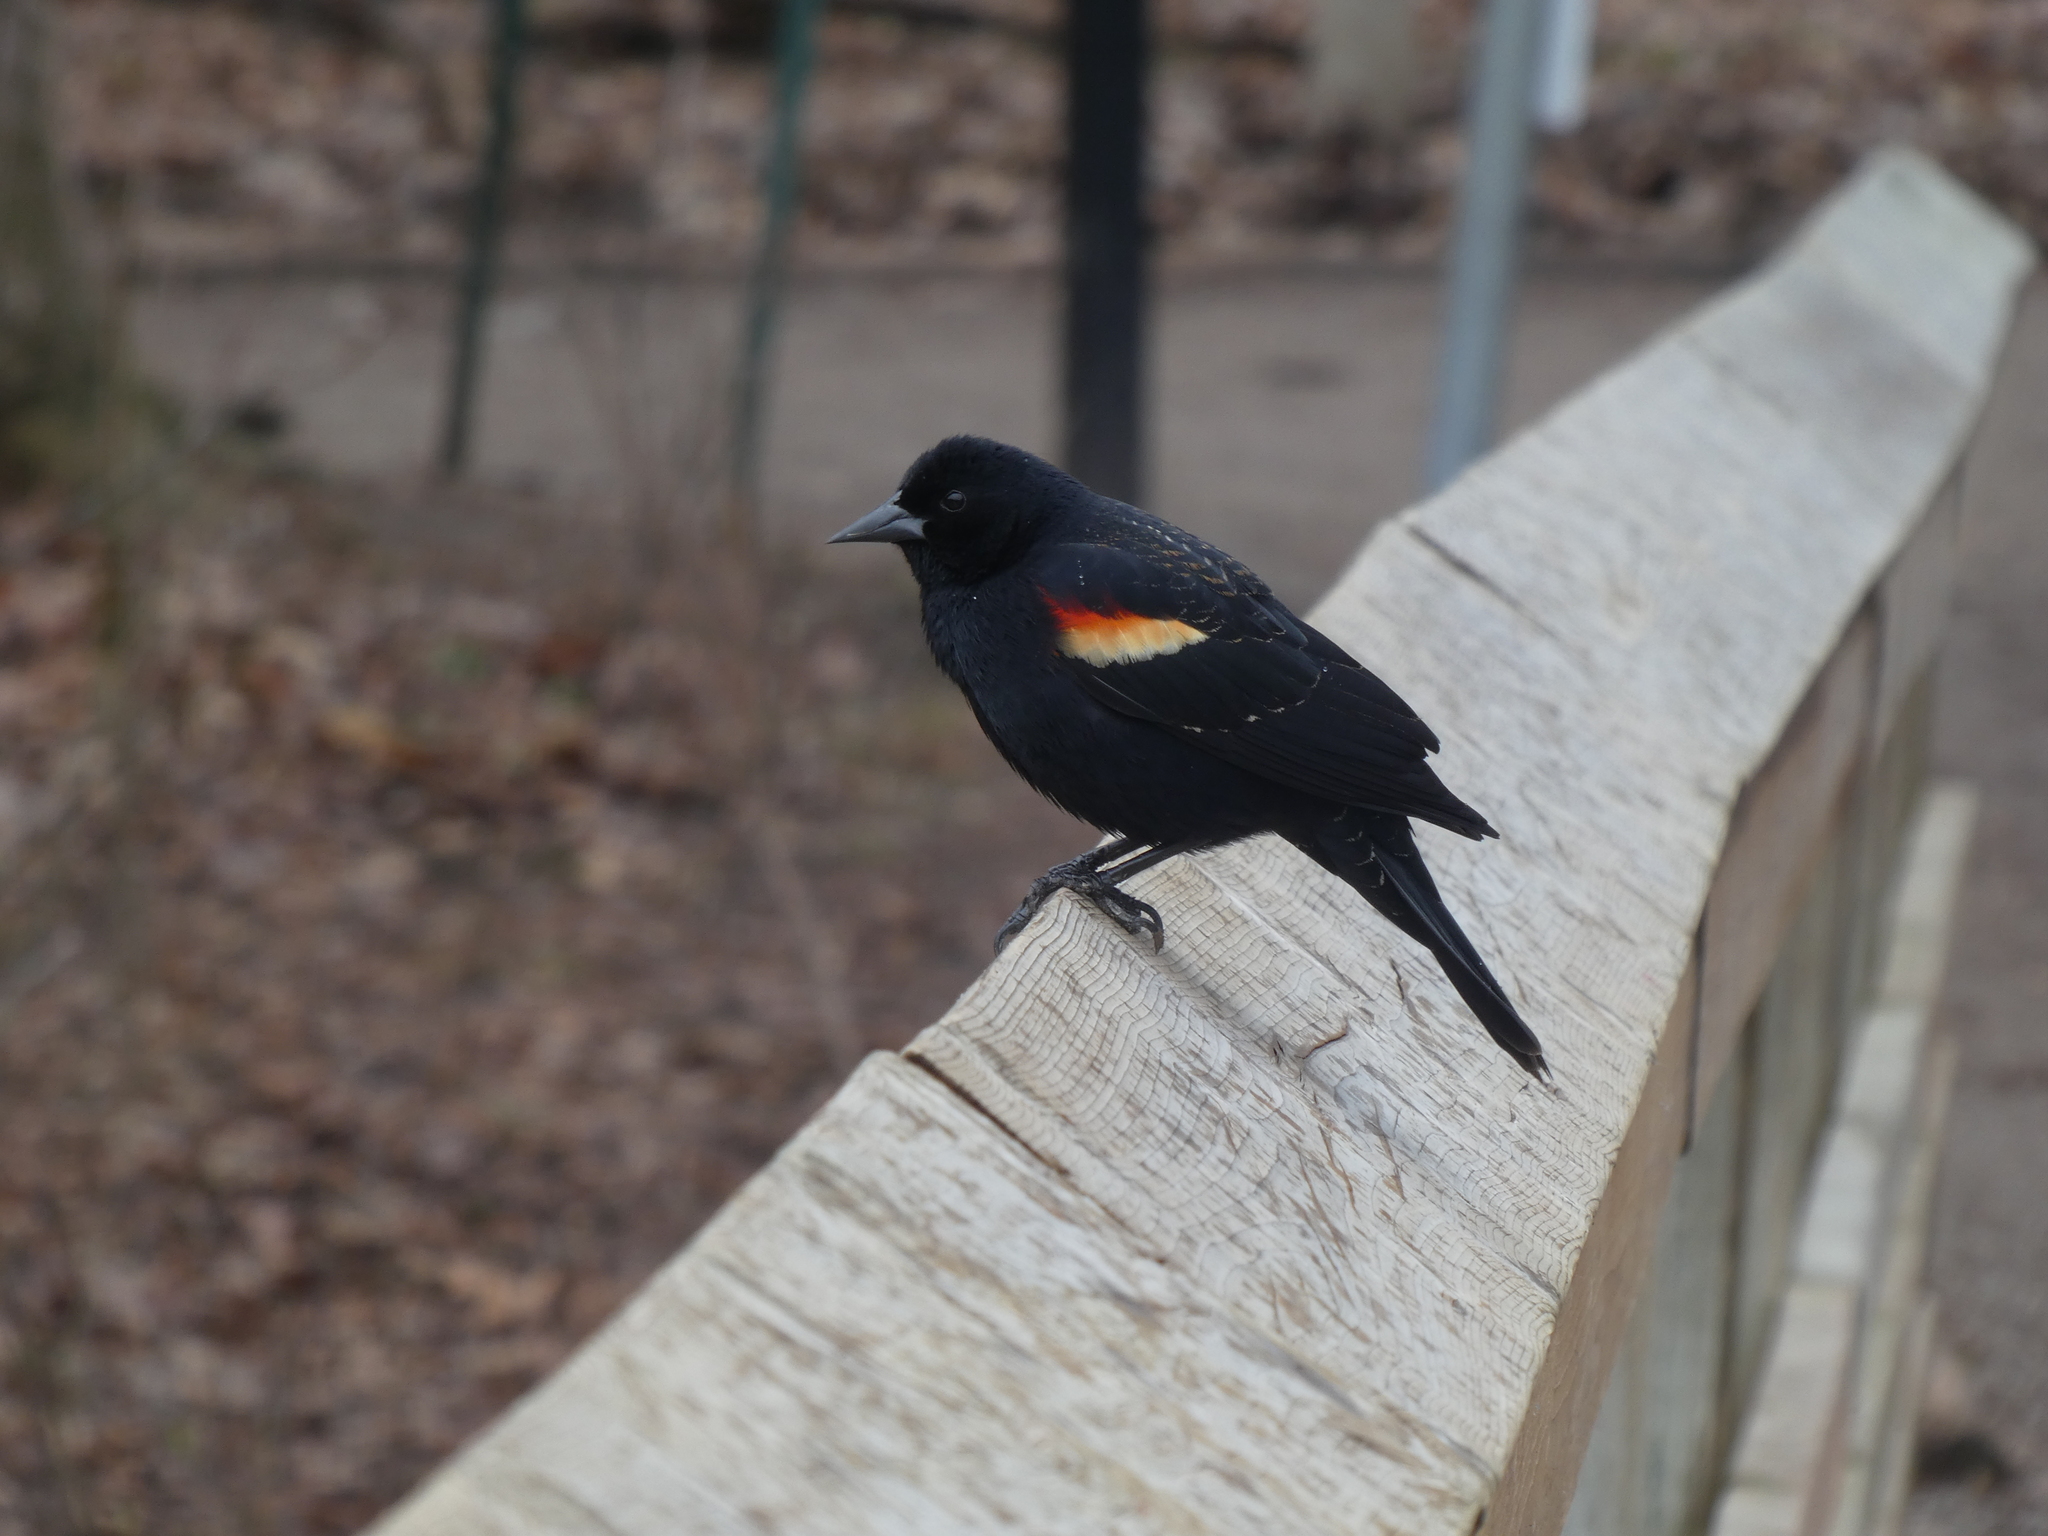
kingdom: Animalia
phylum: Chordata
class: Aves
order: Passeriformes
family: Icteridae
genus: Agelaius
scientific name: Agelaius phoeniceus
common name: Red-winged blackbird
